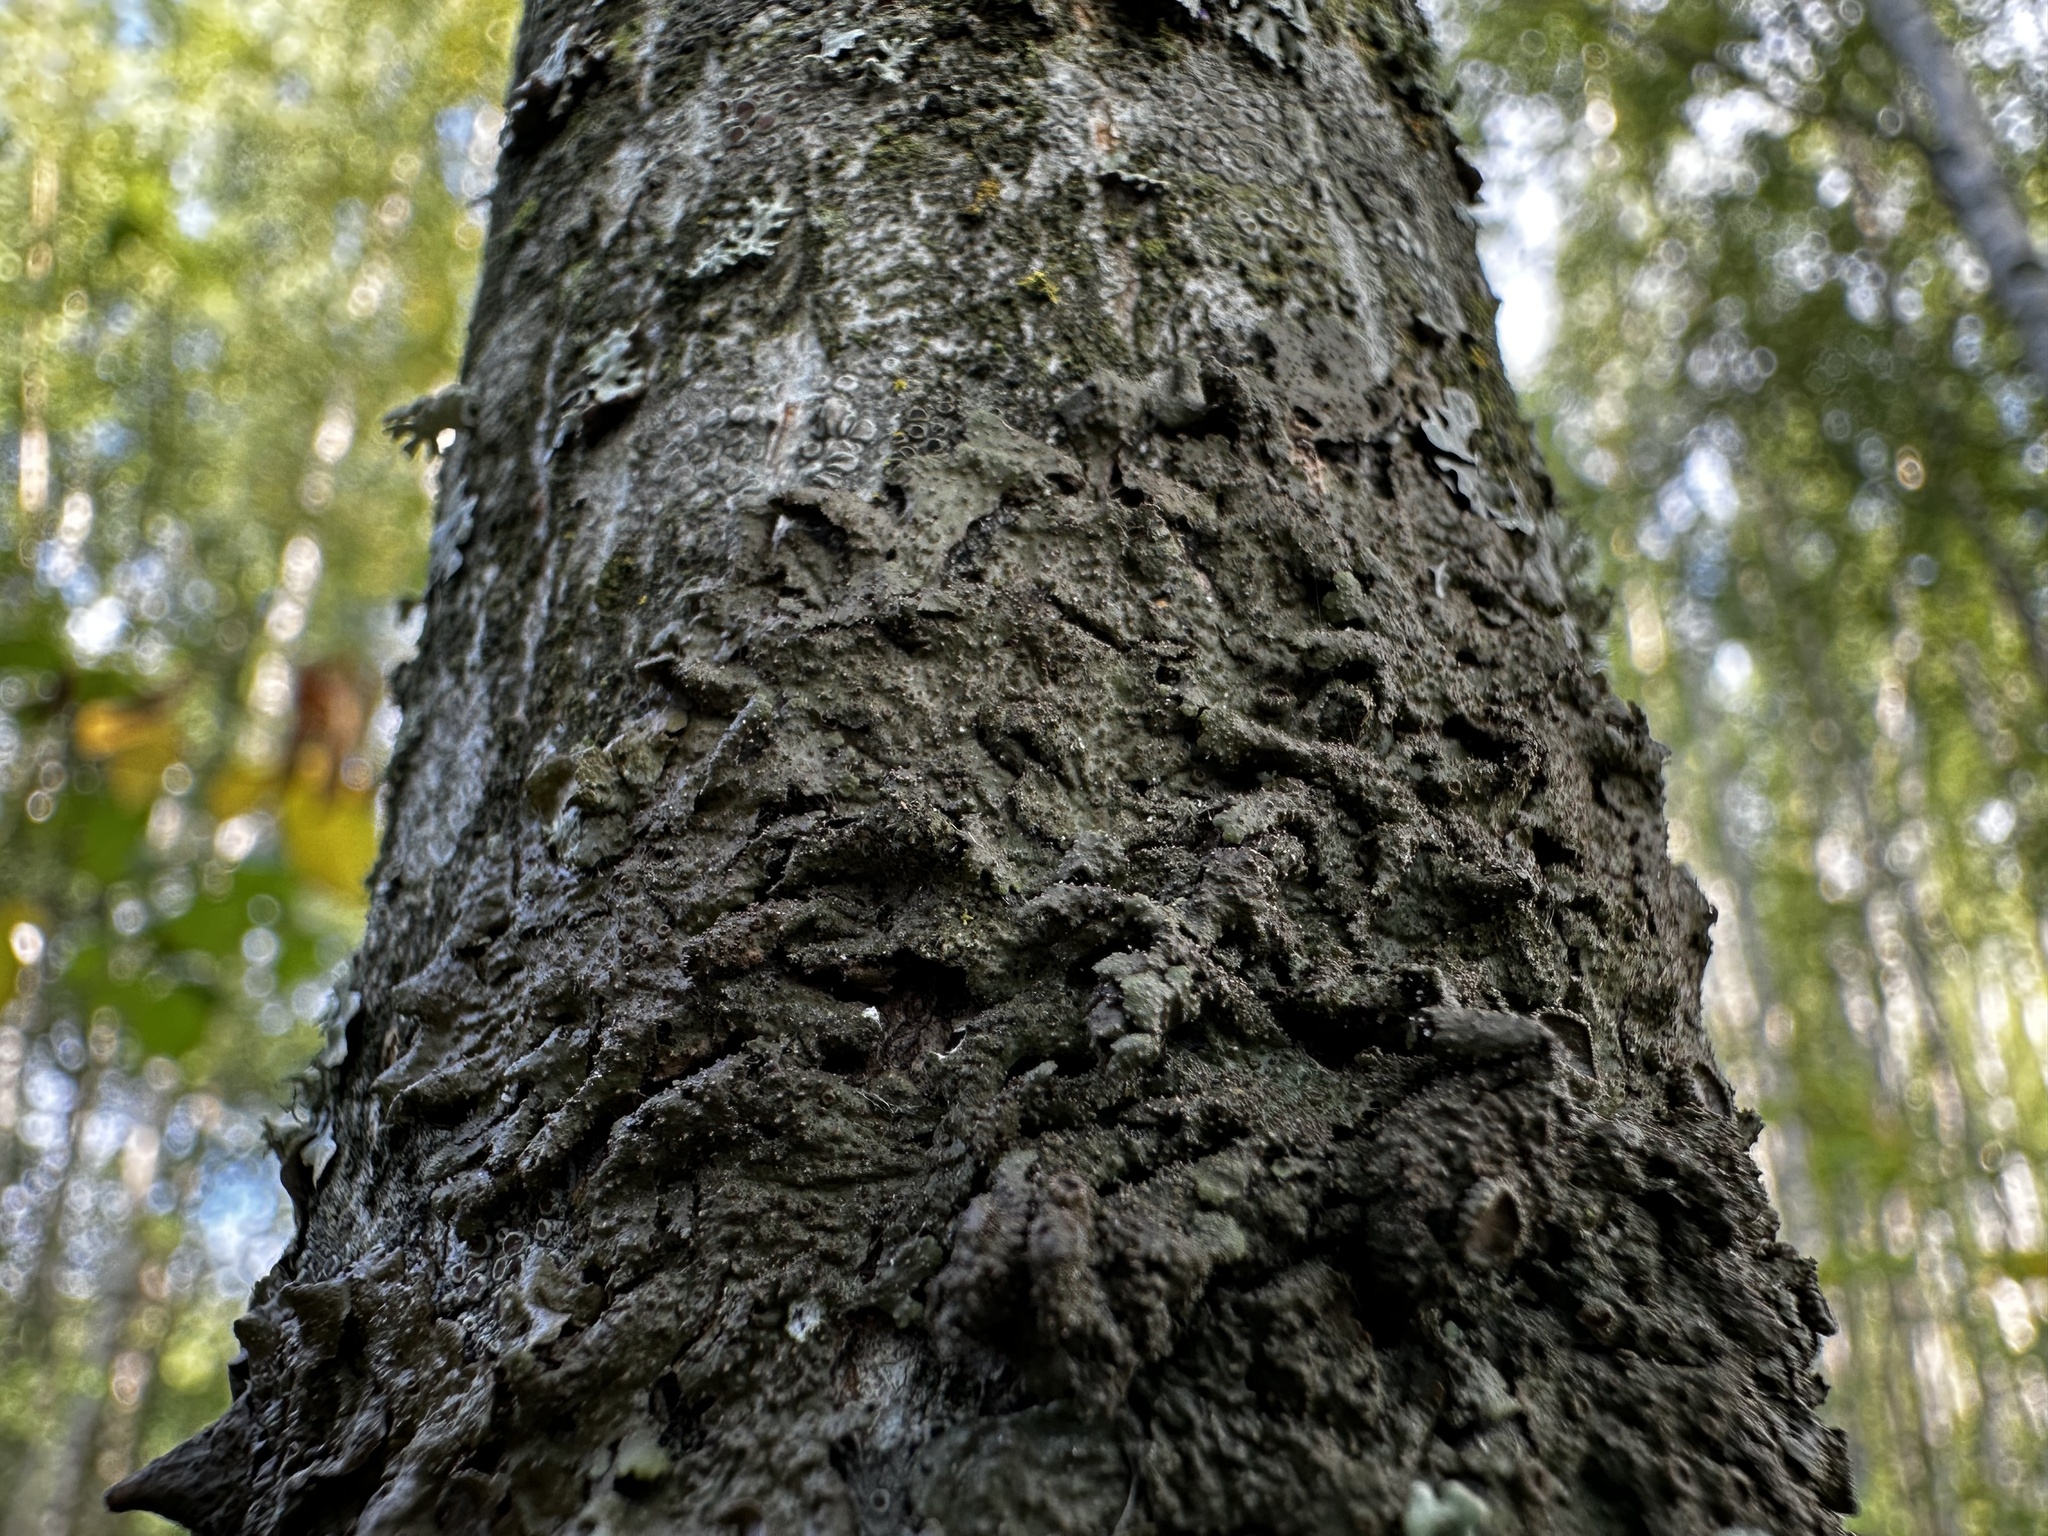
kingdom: Fungi
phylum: Ascomycota
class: Lecanoromycetes
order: Lecanorales
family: Parmeliaceae
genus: Melanohalea
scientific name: Melanohalea exasperata
